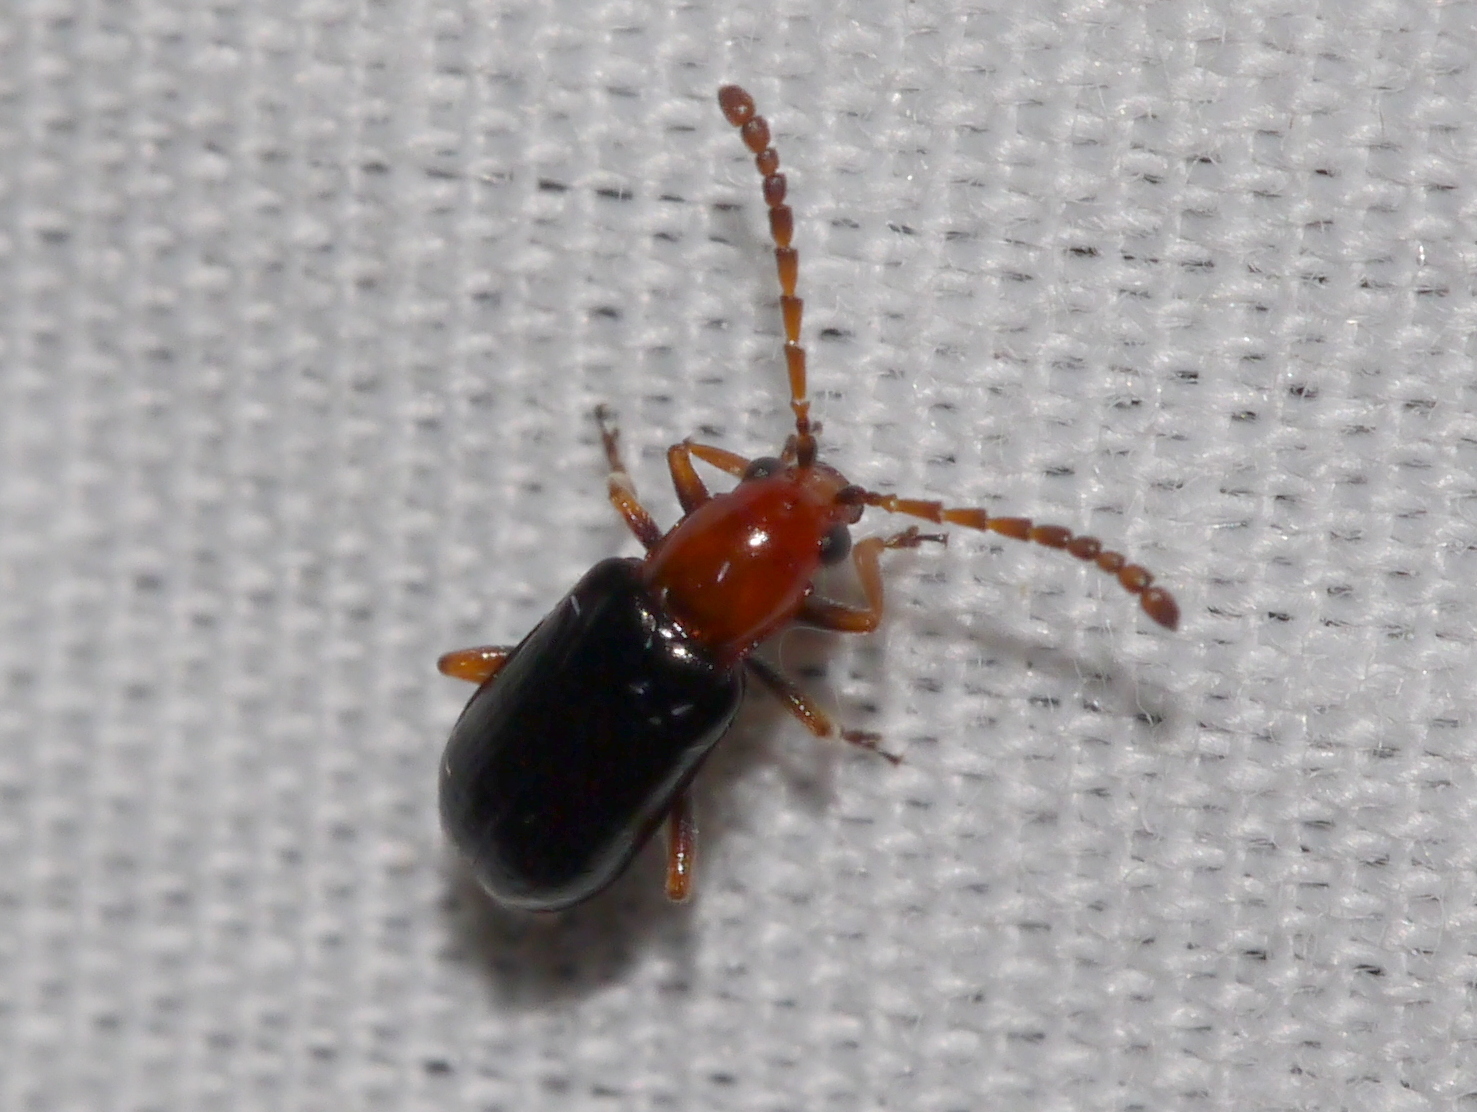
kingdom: Animalia
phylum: Arthropoda
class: Insecta
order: Coleoptera
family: Chrysomelidae
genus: Luperosoma
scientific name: Luperosoma subsulcatum
